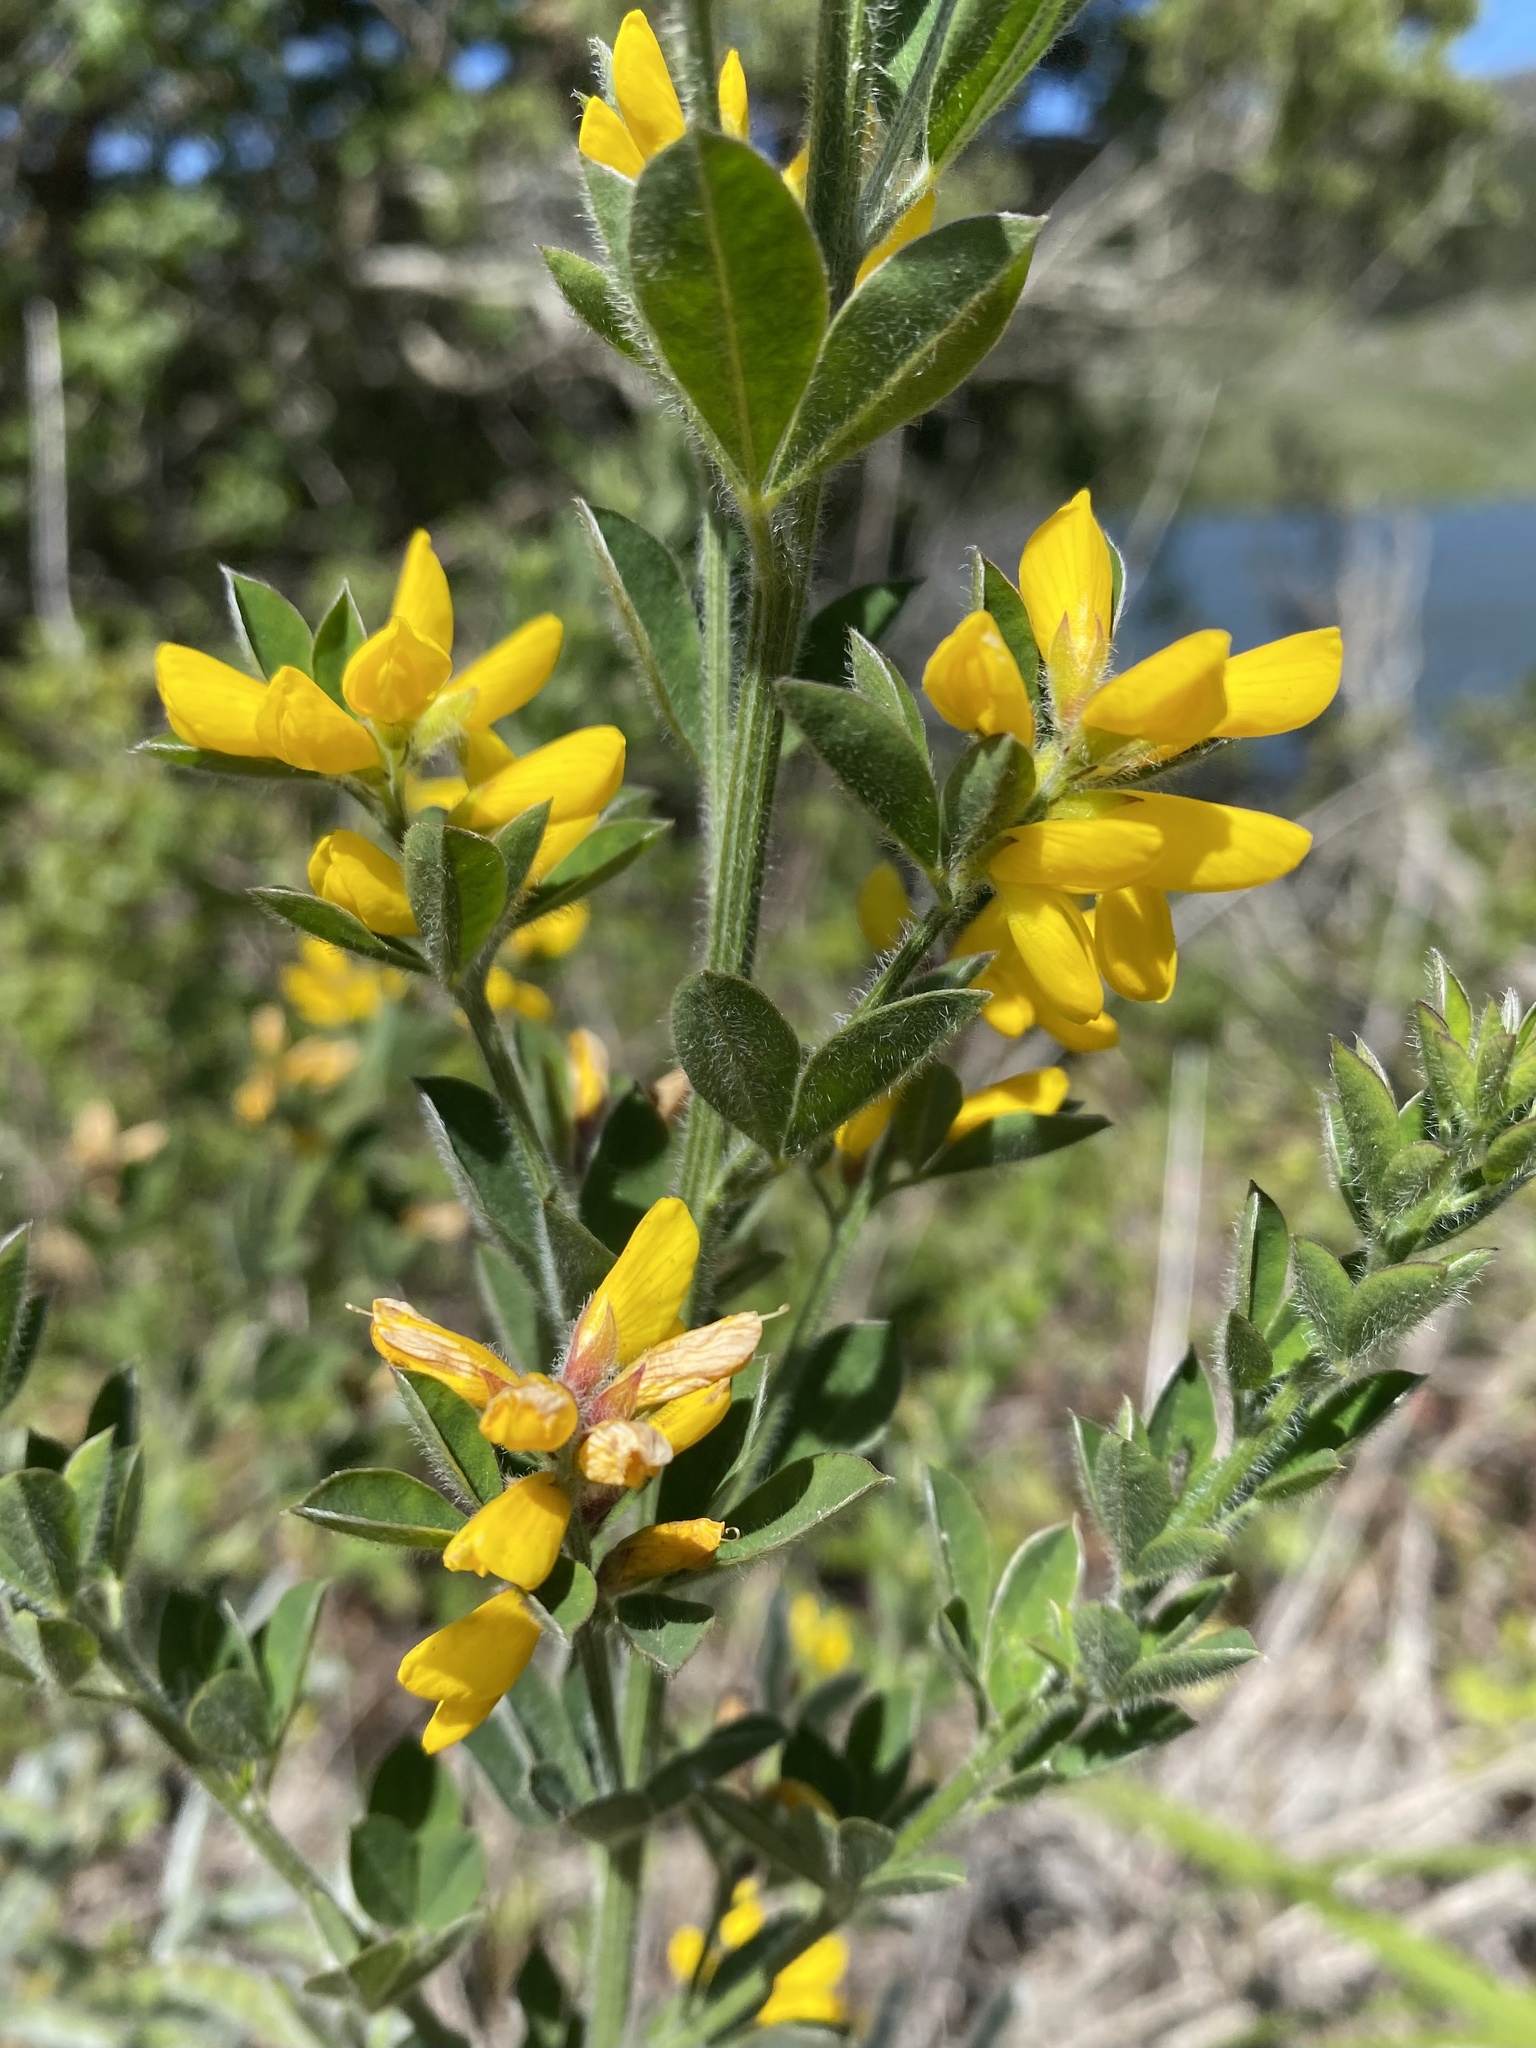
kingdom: Plantae
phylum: Tracheophyta
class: Magnoliopsida
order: Fabales
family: Fabaceae
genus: Genista
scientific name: Genista monspessulana
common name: Montpellier broom
